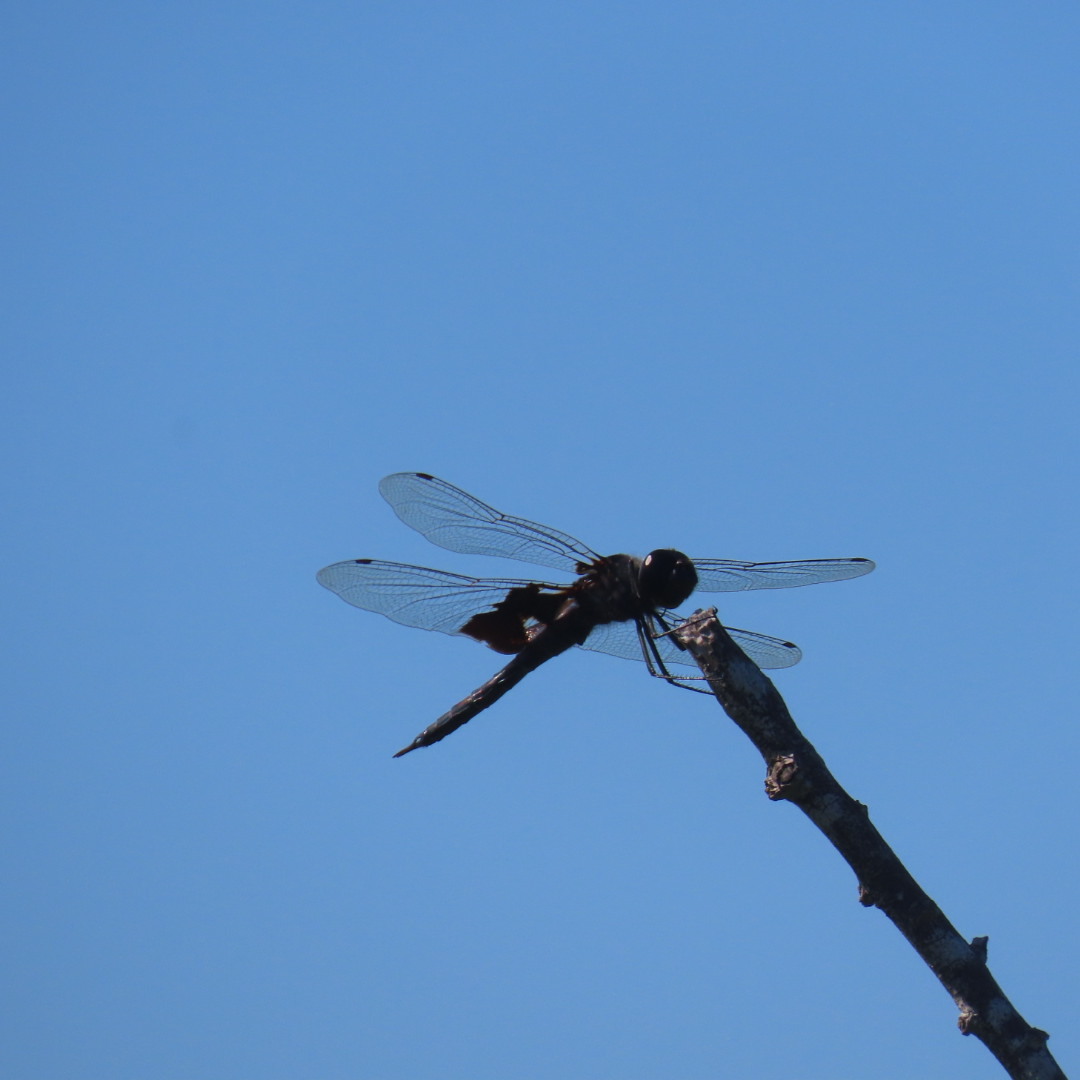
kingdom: Animalia
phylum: Arthropoda
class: Insecta
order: Odonata
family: Libellulidae
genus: Tramea
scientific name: Tramea lacerata
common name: Black saddlebags
